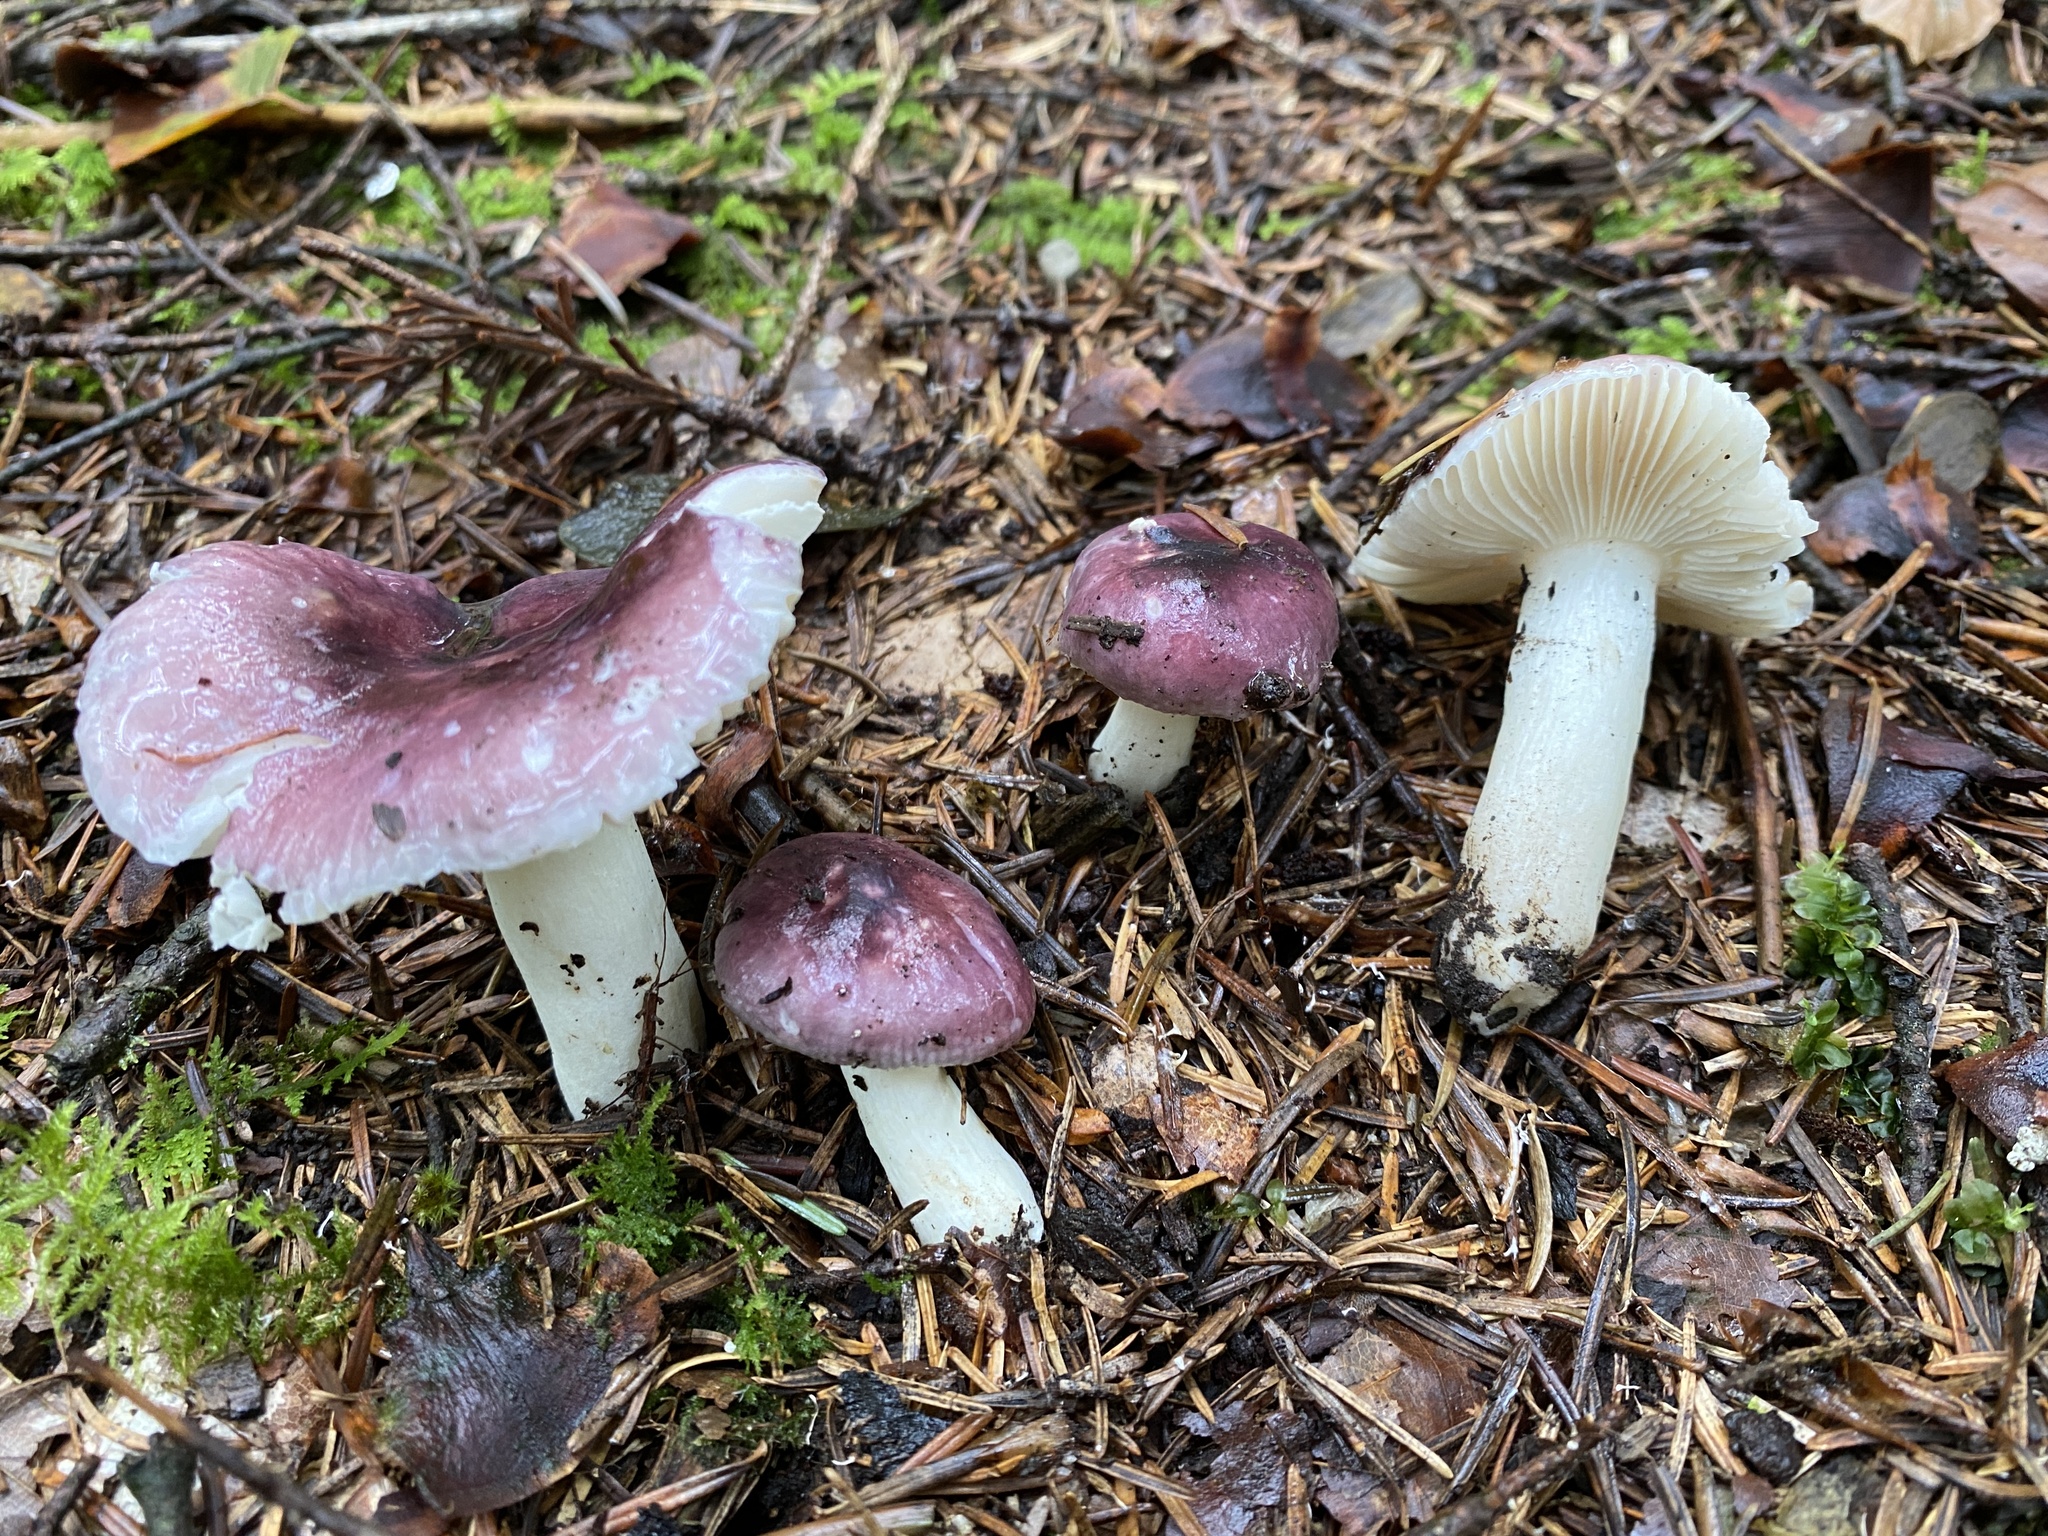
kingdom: Fungi
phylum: Basidiomycota
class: Agaricomycetes
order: Russulales
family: Russulaceae
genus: Russula
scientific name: Russula cavipes
